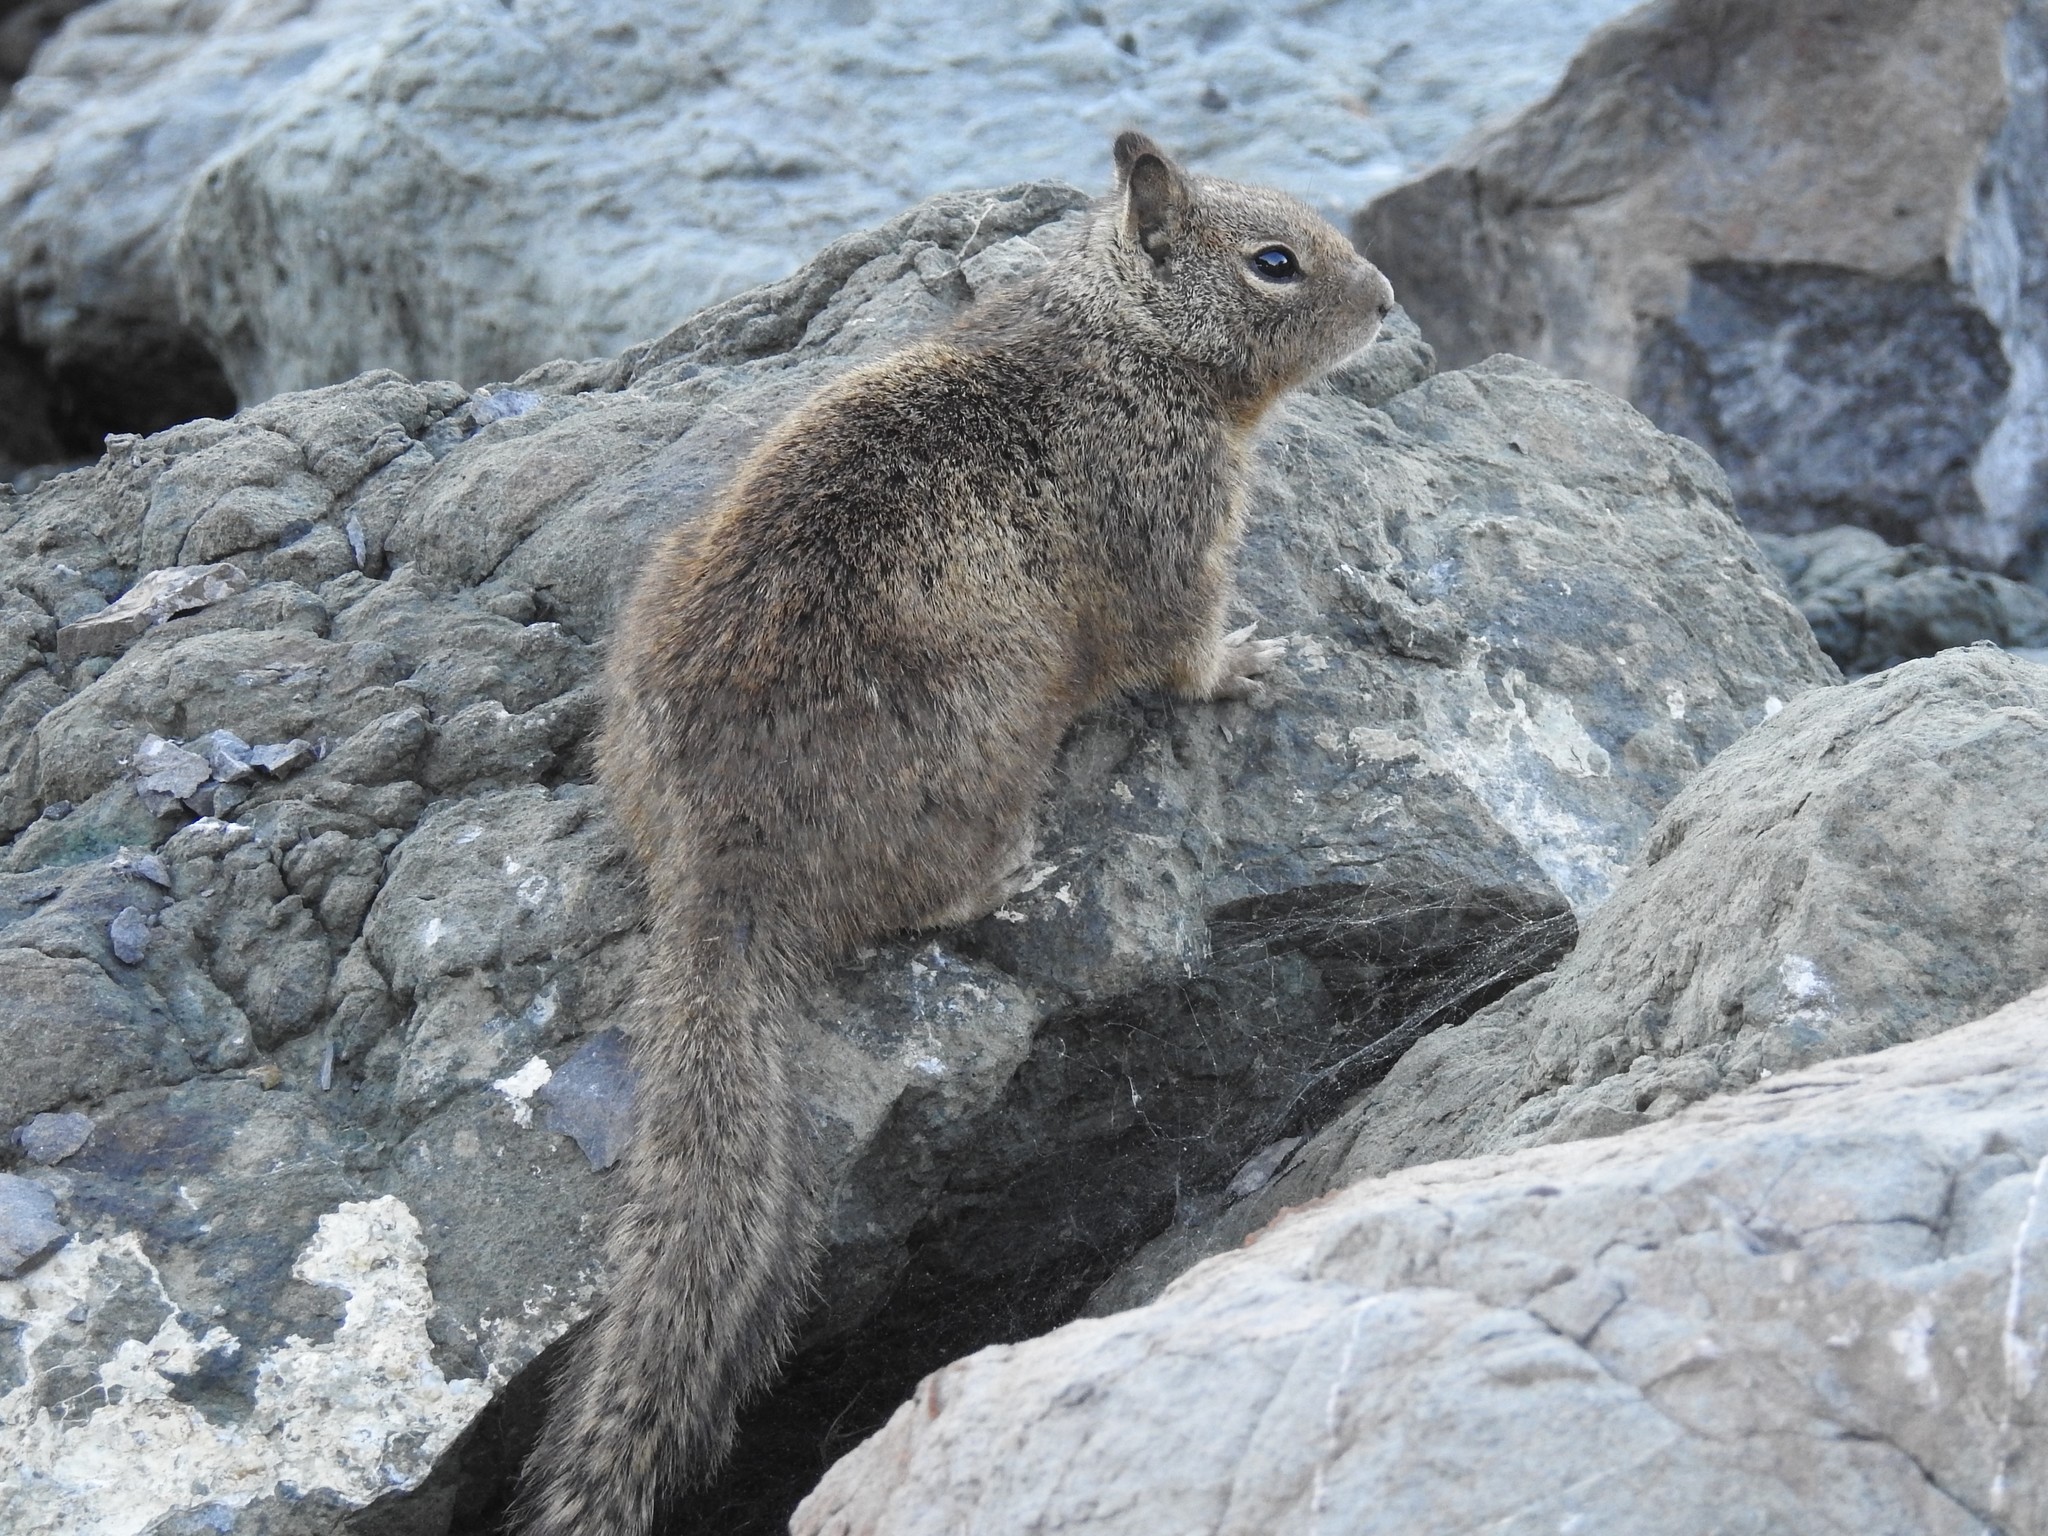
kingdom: Animalia
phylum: Chordata
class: Mammalia
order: Rodentia
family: Sciuridae
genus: Otospermophilus
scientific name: Otospermophilus beecheyi
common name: California ground squirrel
